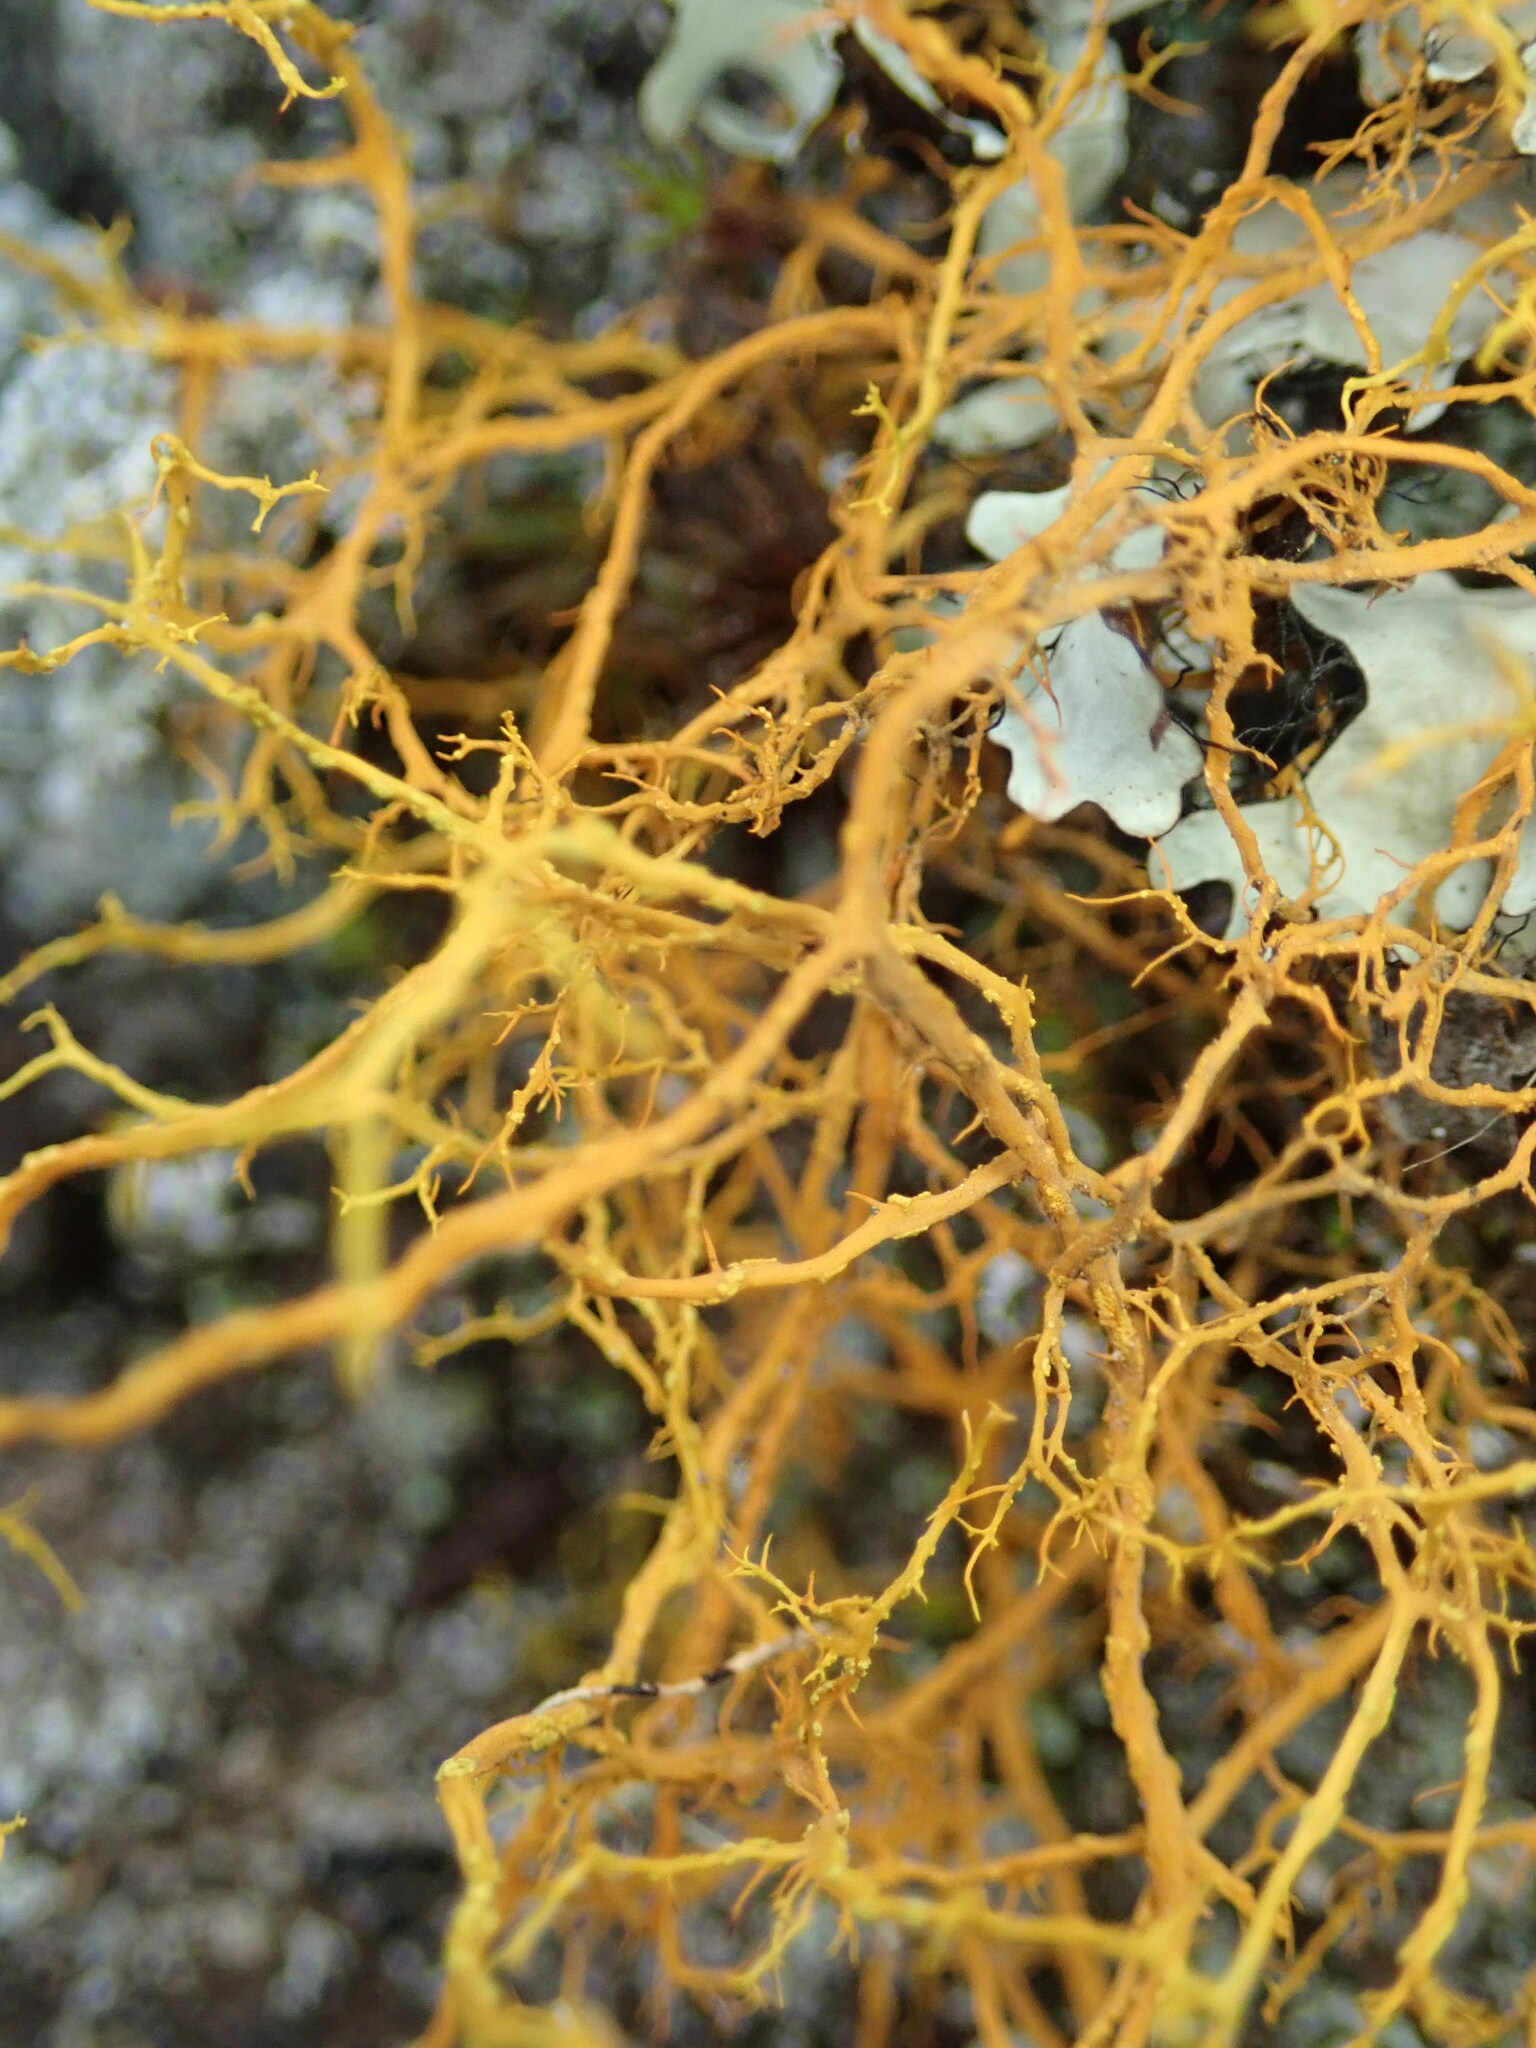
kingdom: Fungi
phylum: Ascomycota
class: Lecanoromycetes
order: Teloschistales
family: Teloschistaceae
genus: Teloschistes
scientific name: Teloschistes flavicans
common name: Golden hair-lichen
